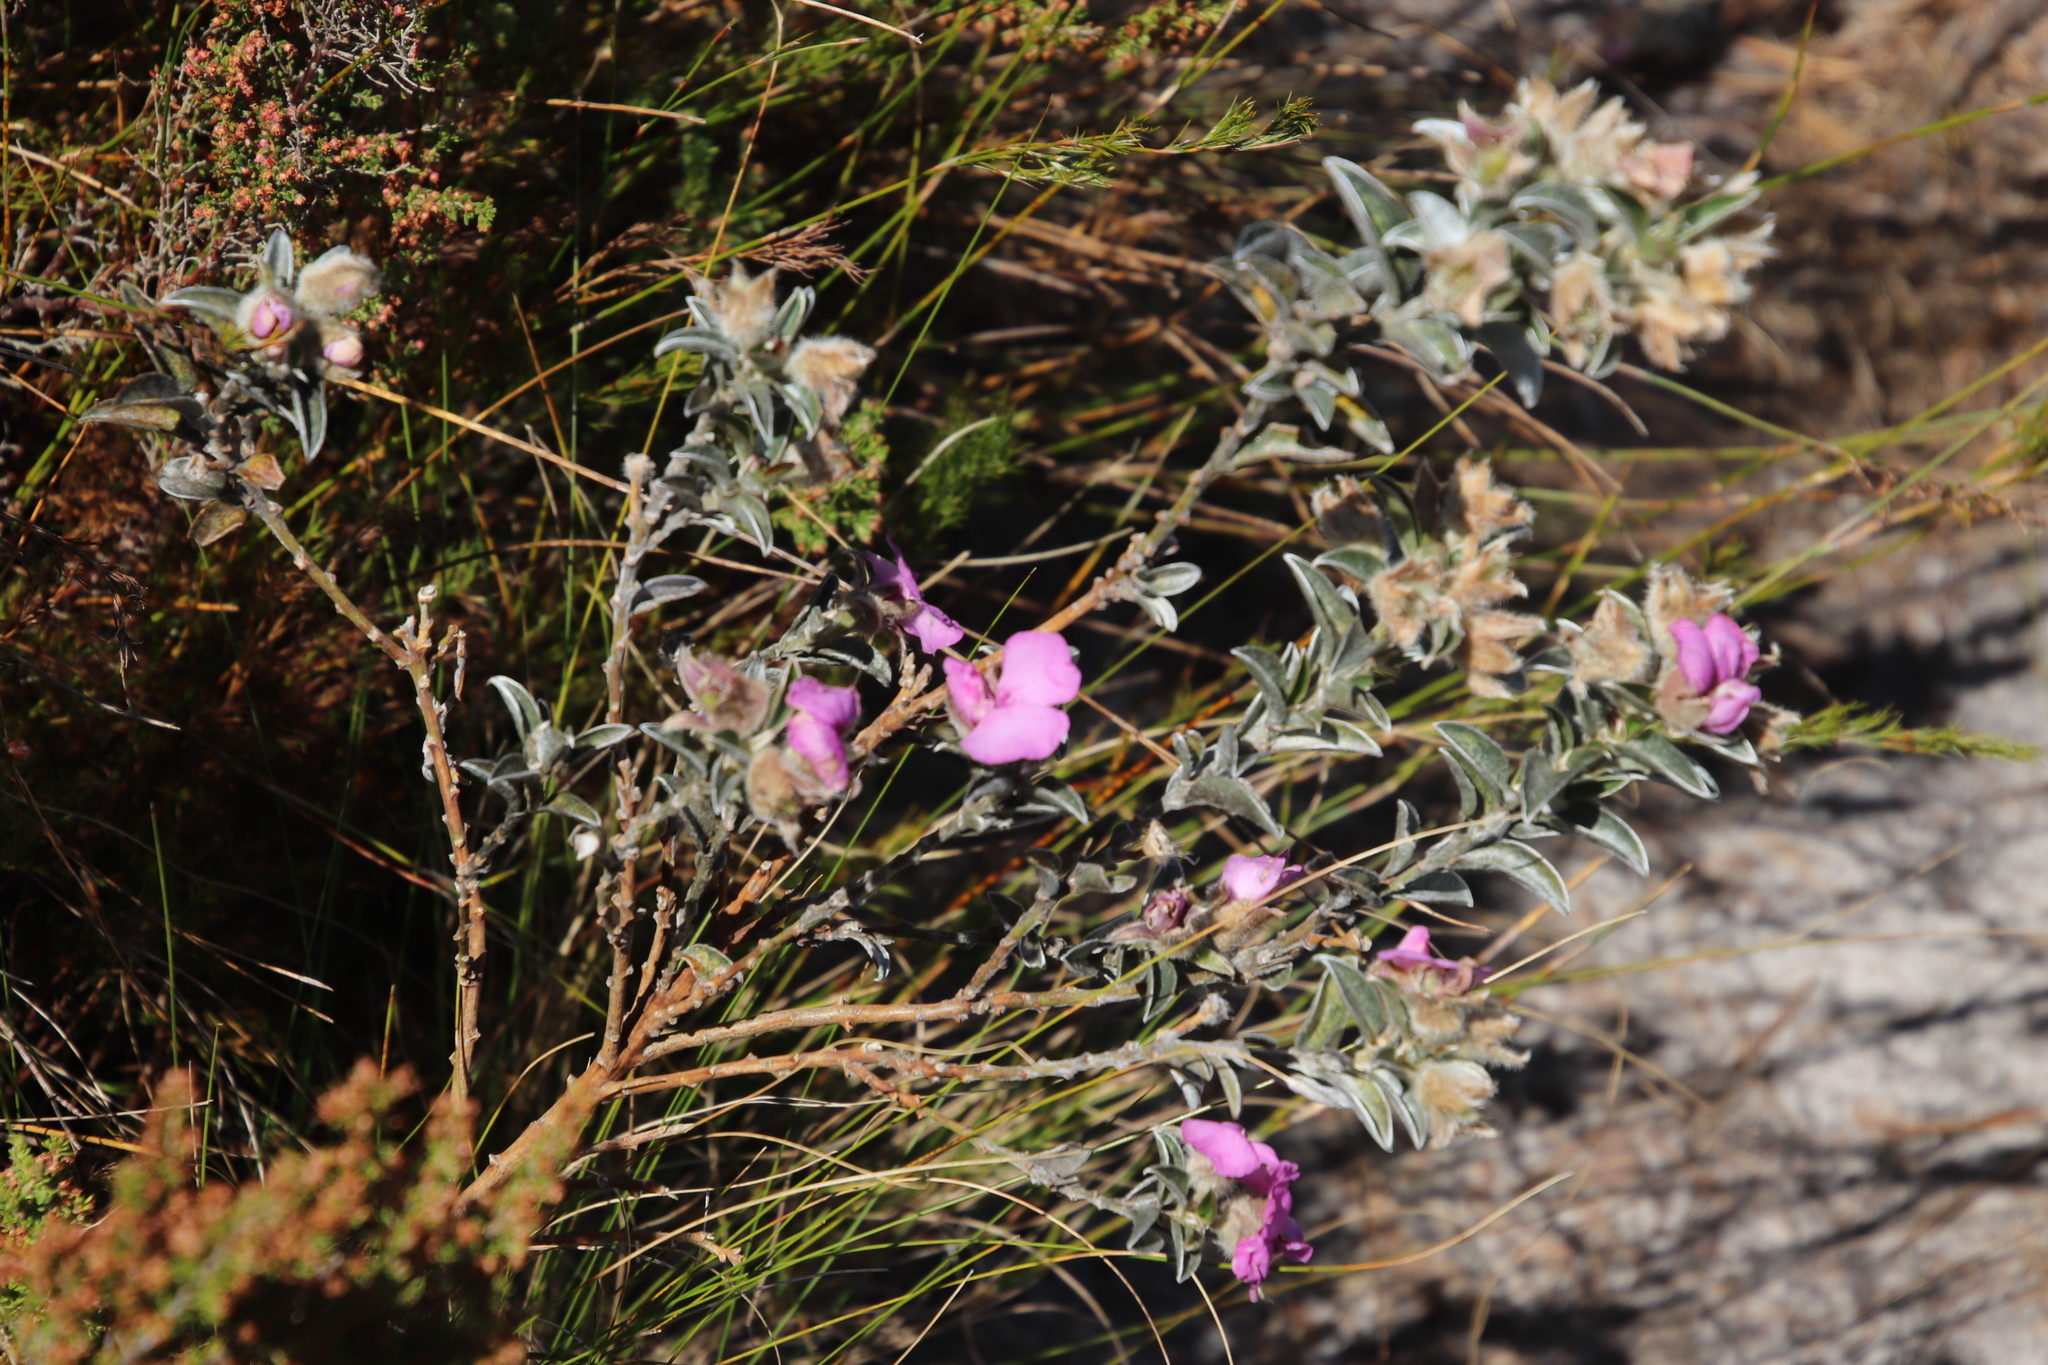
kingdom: Plantae
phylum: Tracheophyta
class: Magnoliopsida
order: Fabales
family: Fabaceae
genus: Podalyria
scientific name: Podalyria variabilis
